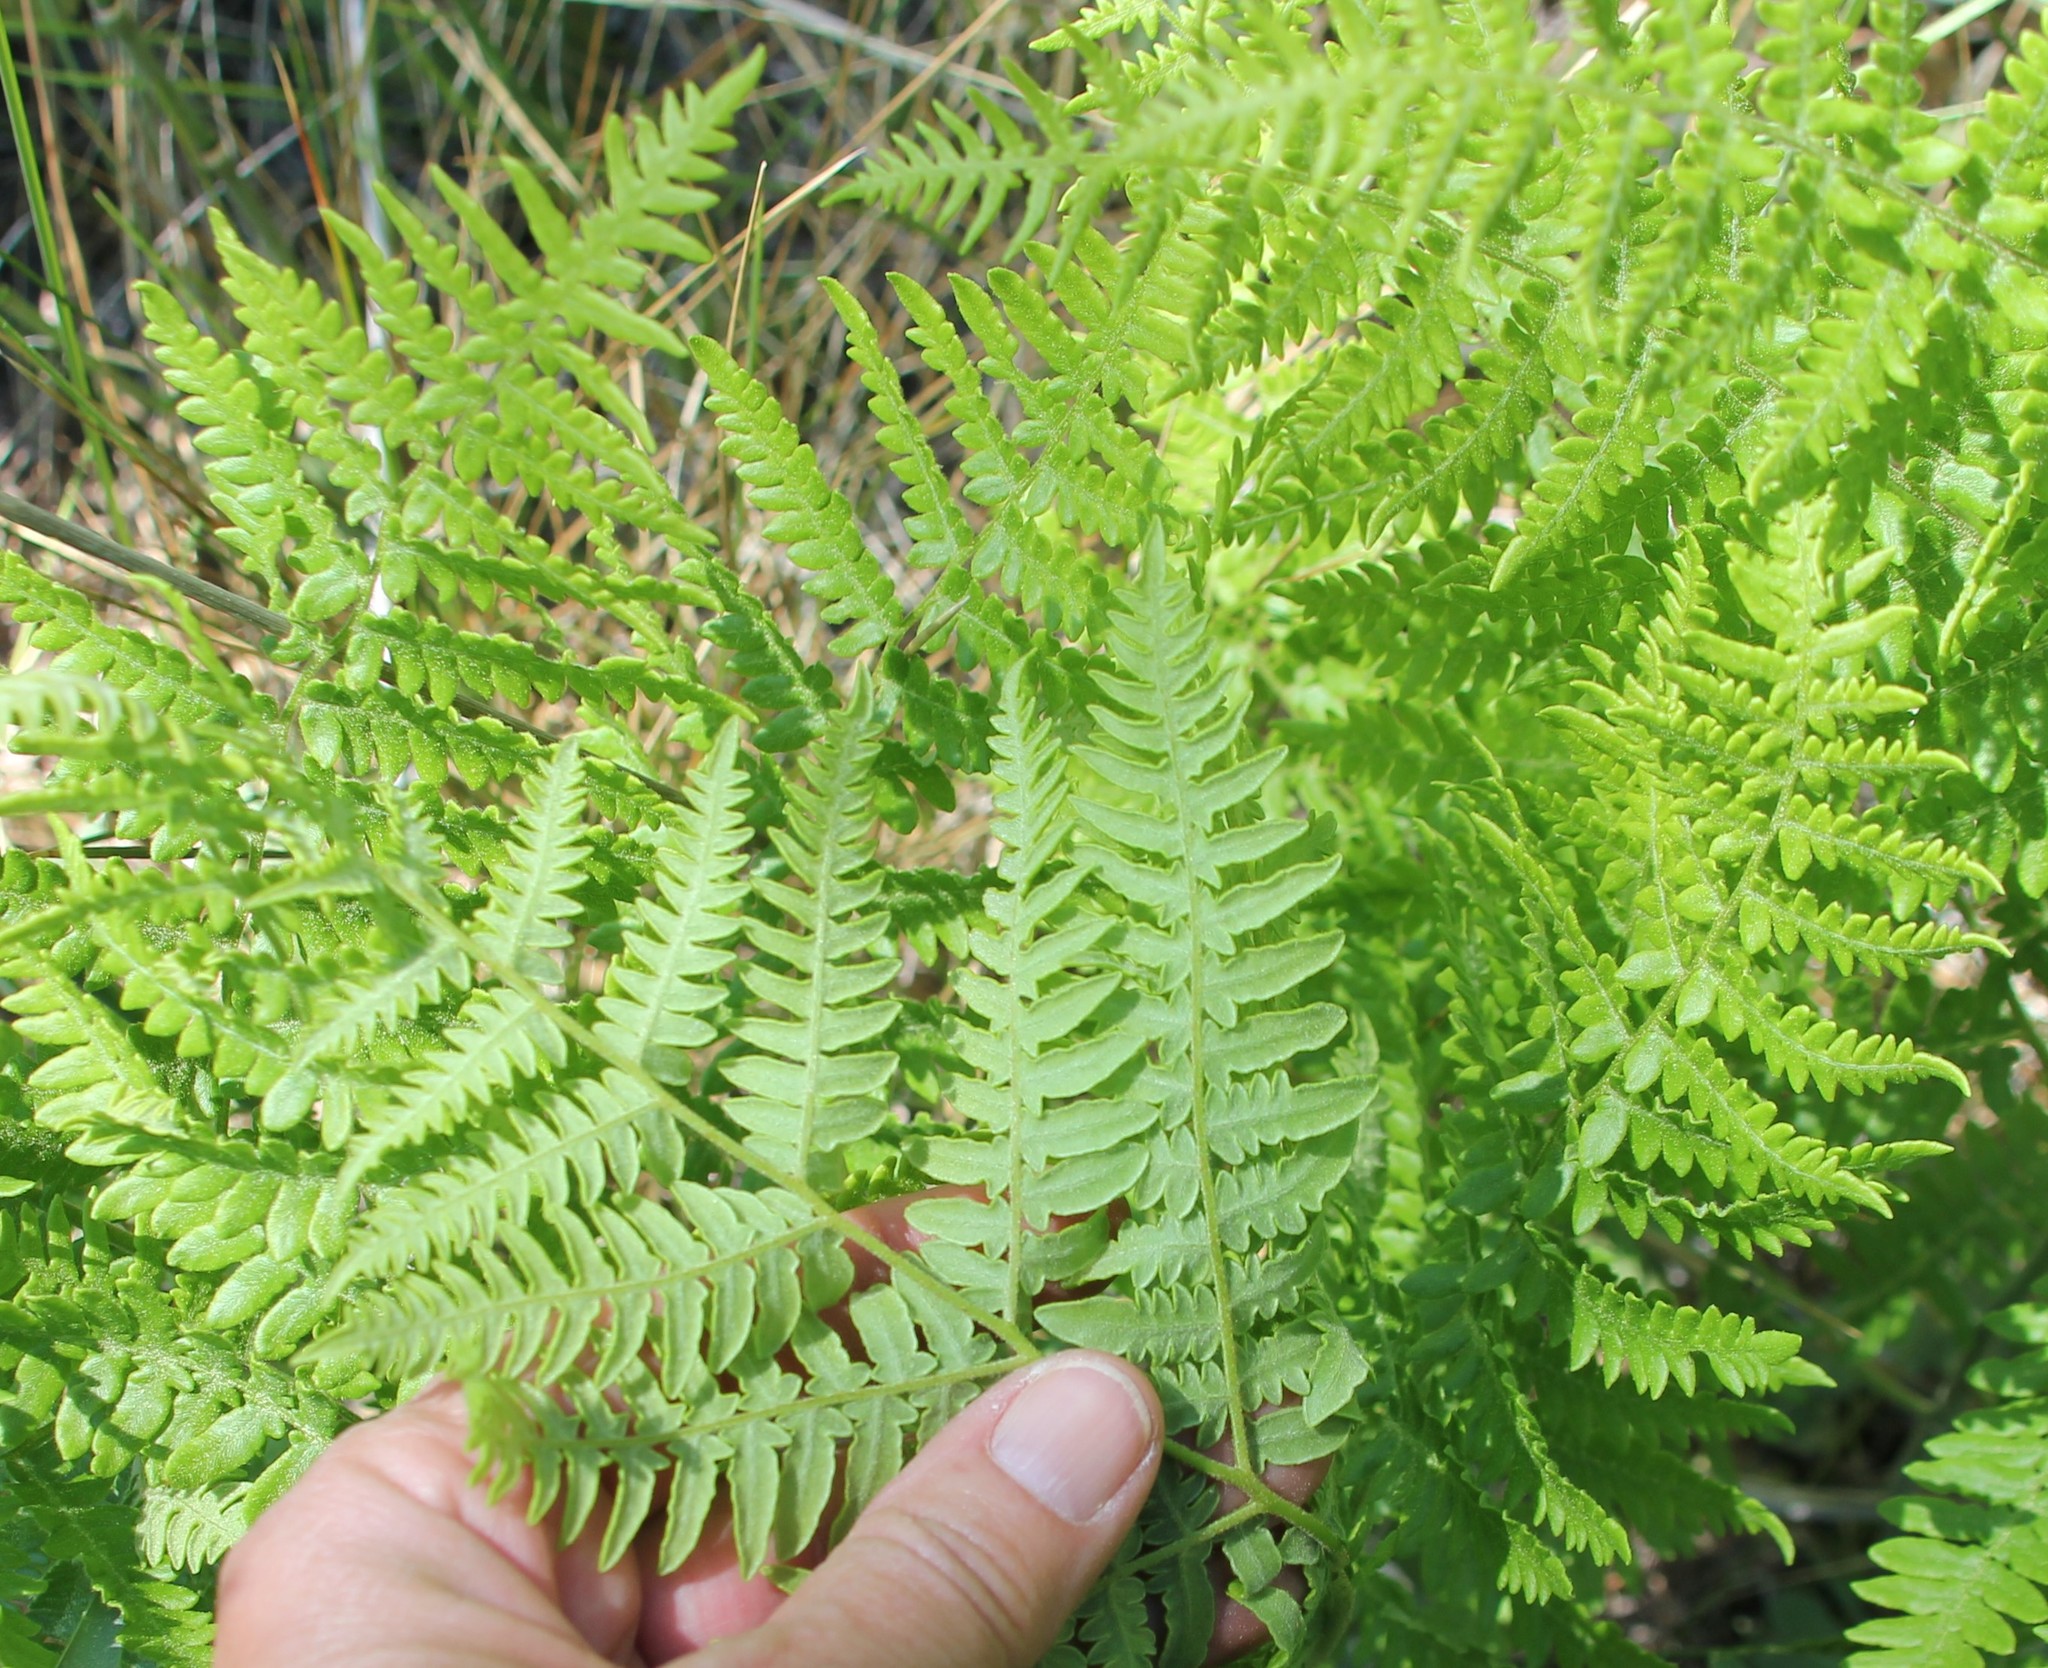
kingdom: Plantae
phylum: Tracheophyta
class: Polypodiopsida
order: Polypodiales
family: Dennstaedtiaceae
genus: Pteridium
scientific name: Pteridium aquilinum
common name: Bracken
